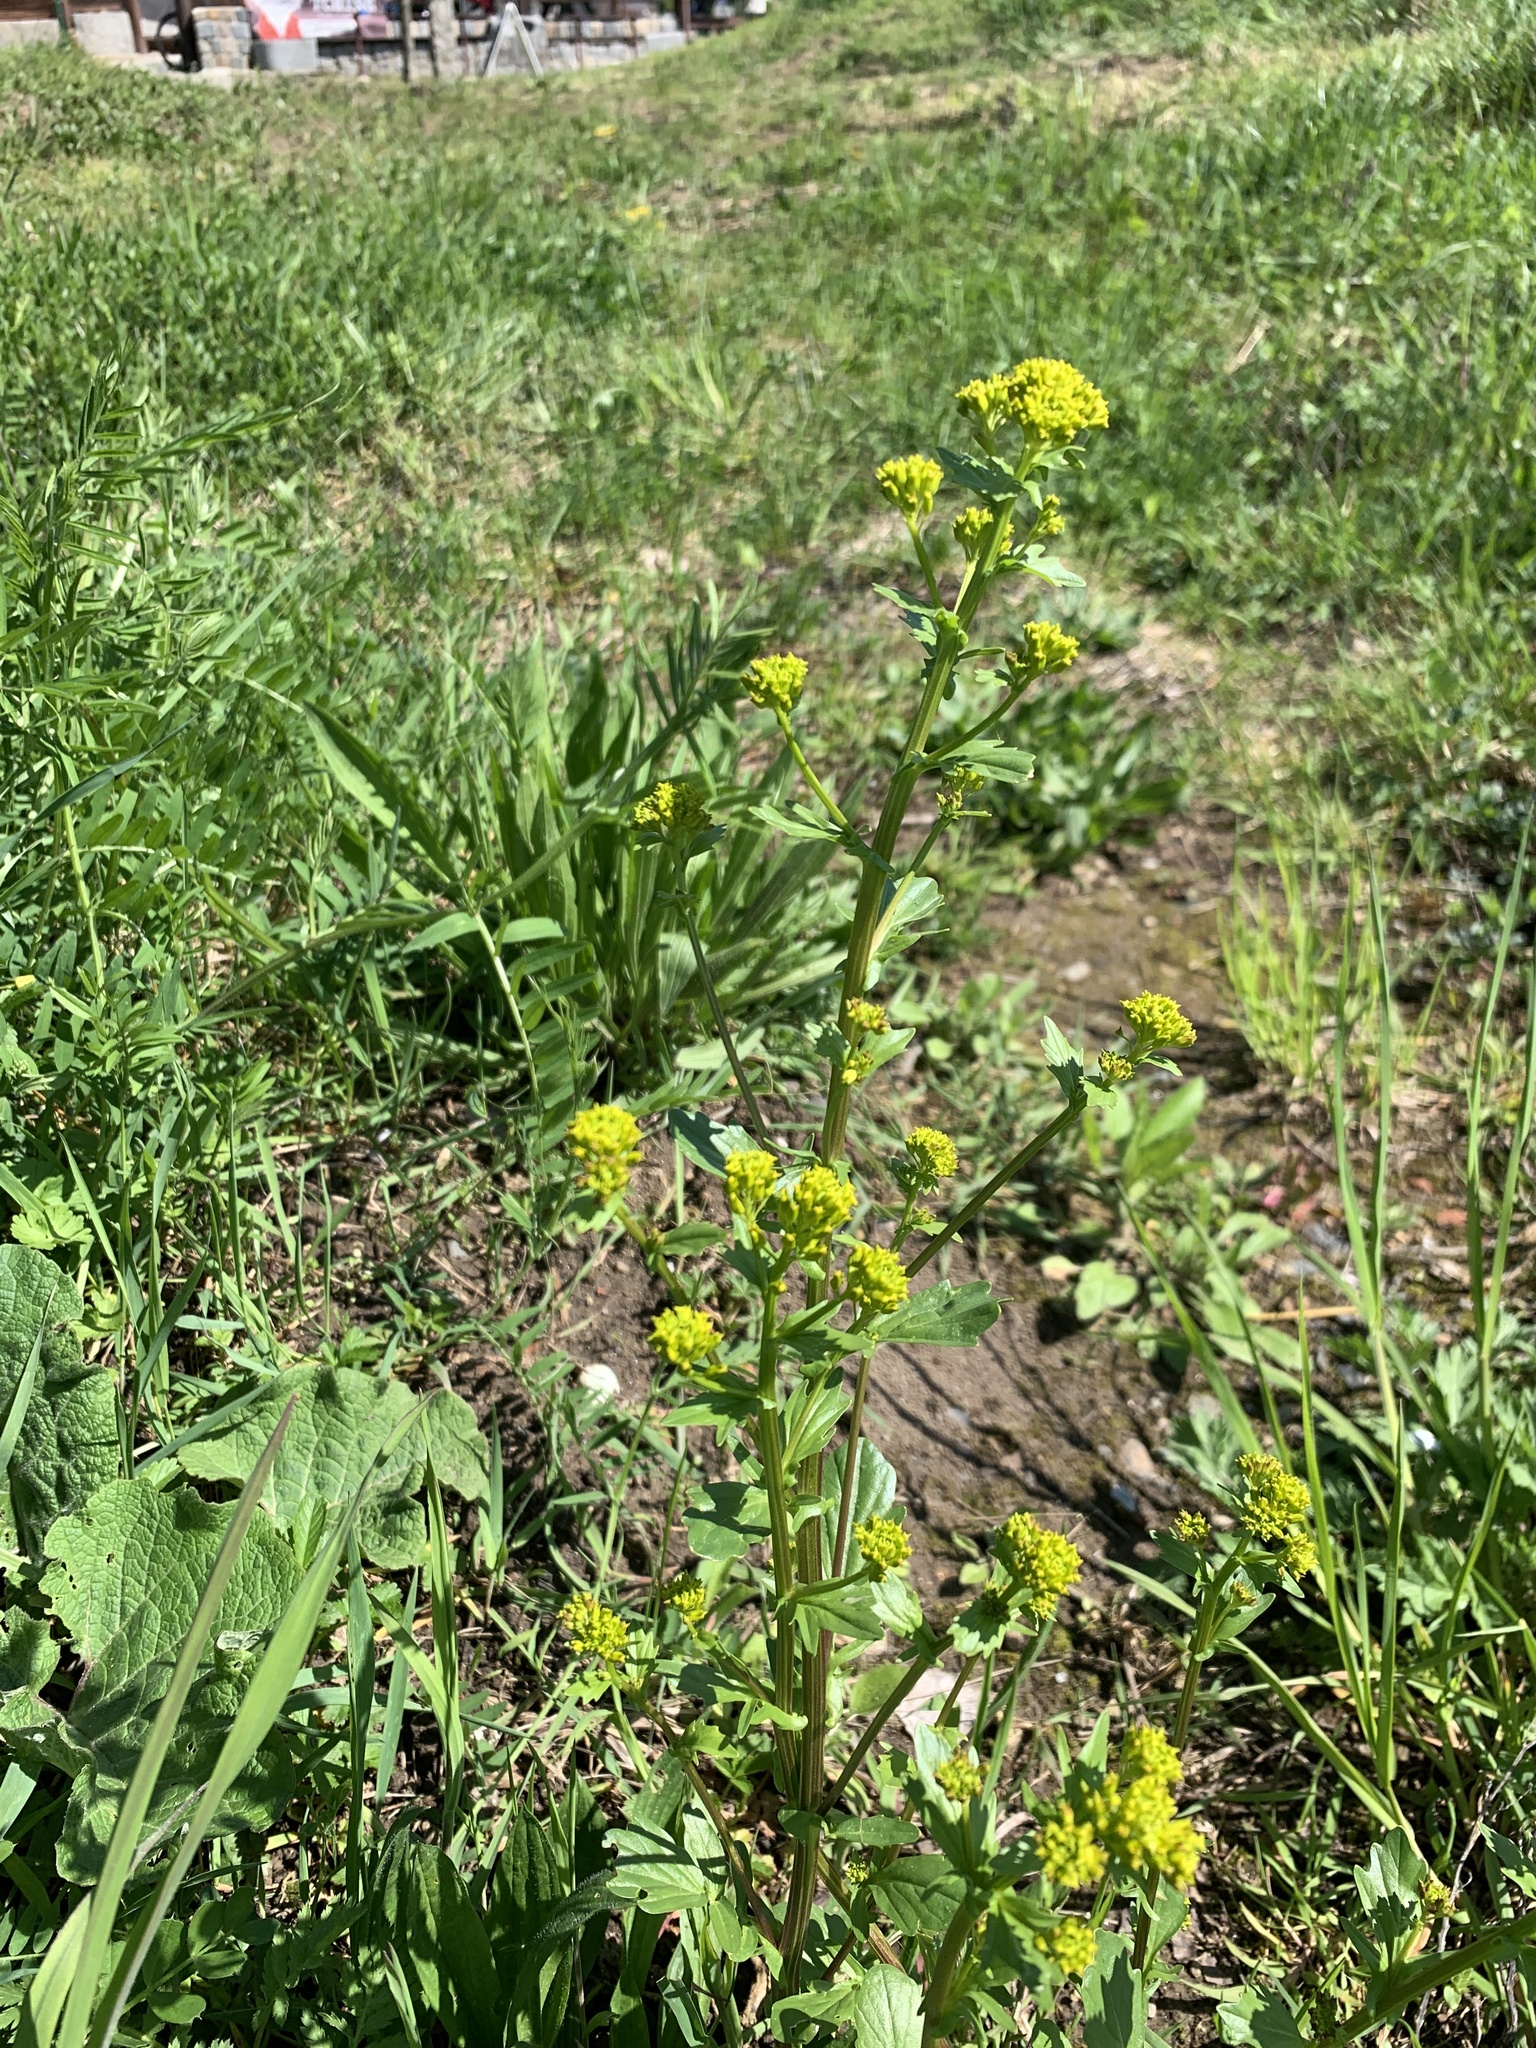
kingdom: Plantae
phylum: Tracheophyta
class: Magnoliopsida
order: Brassicales
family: Brassicaceae
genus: Barbarea
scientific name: Barbarea vulgaris
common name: Cressy-greens
